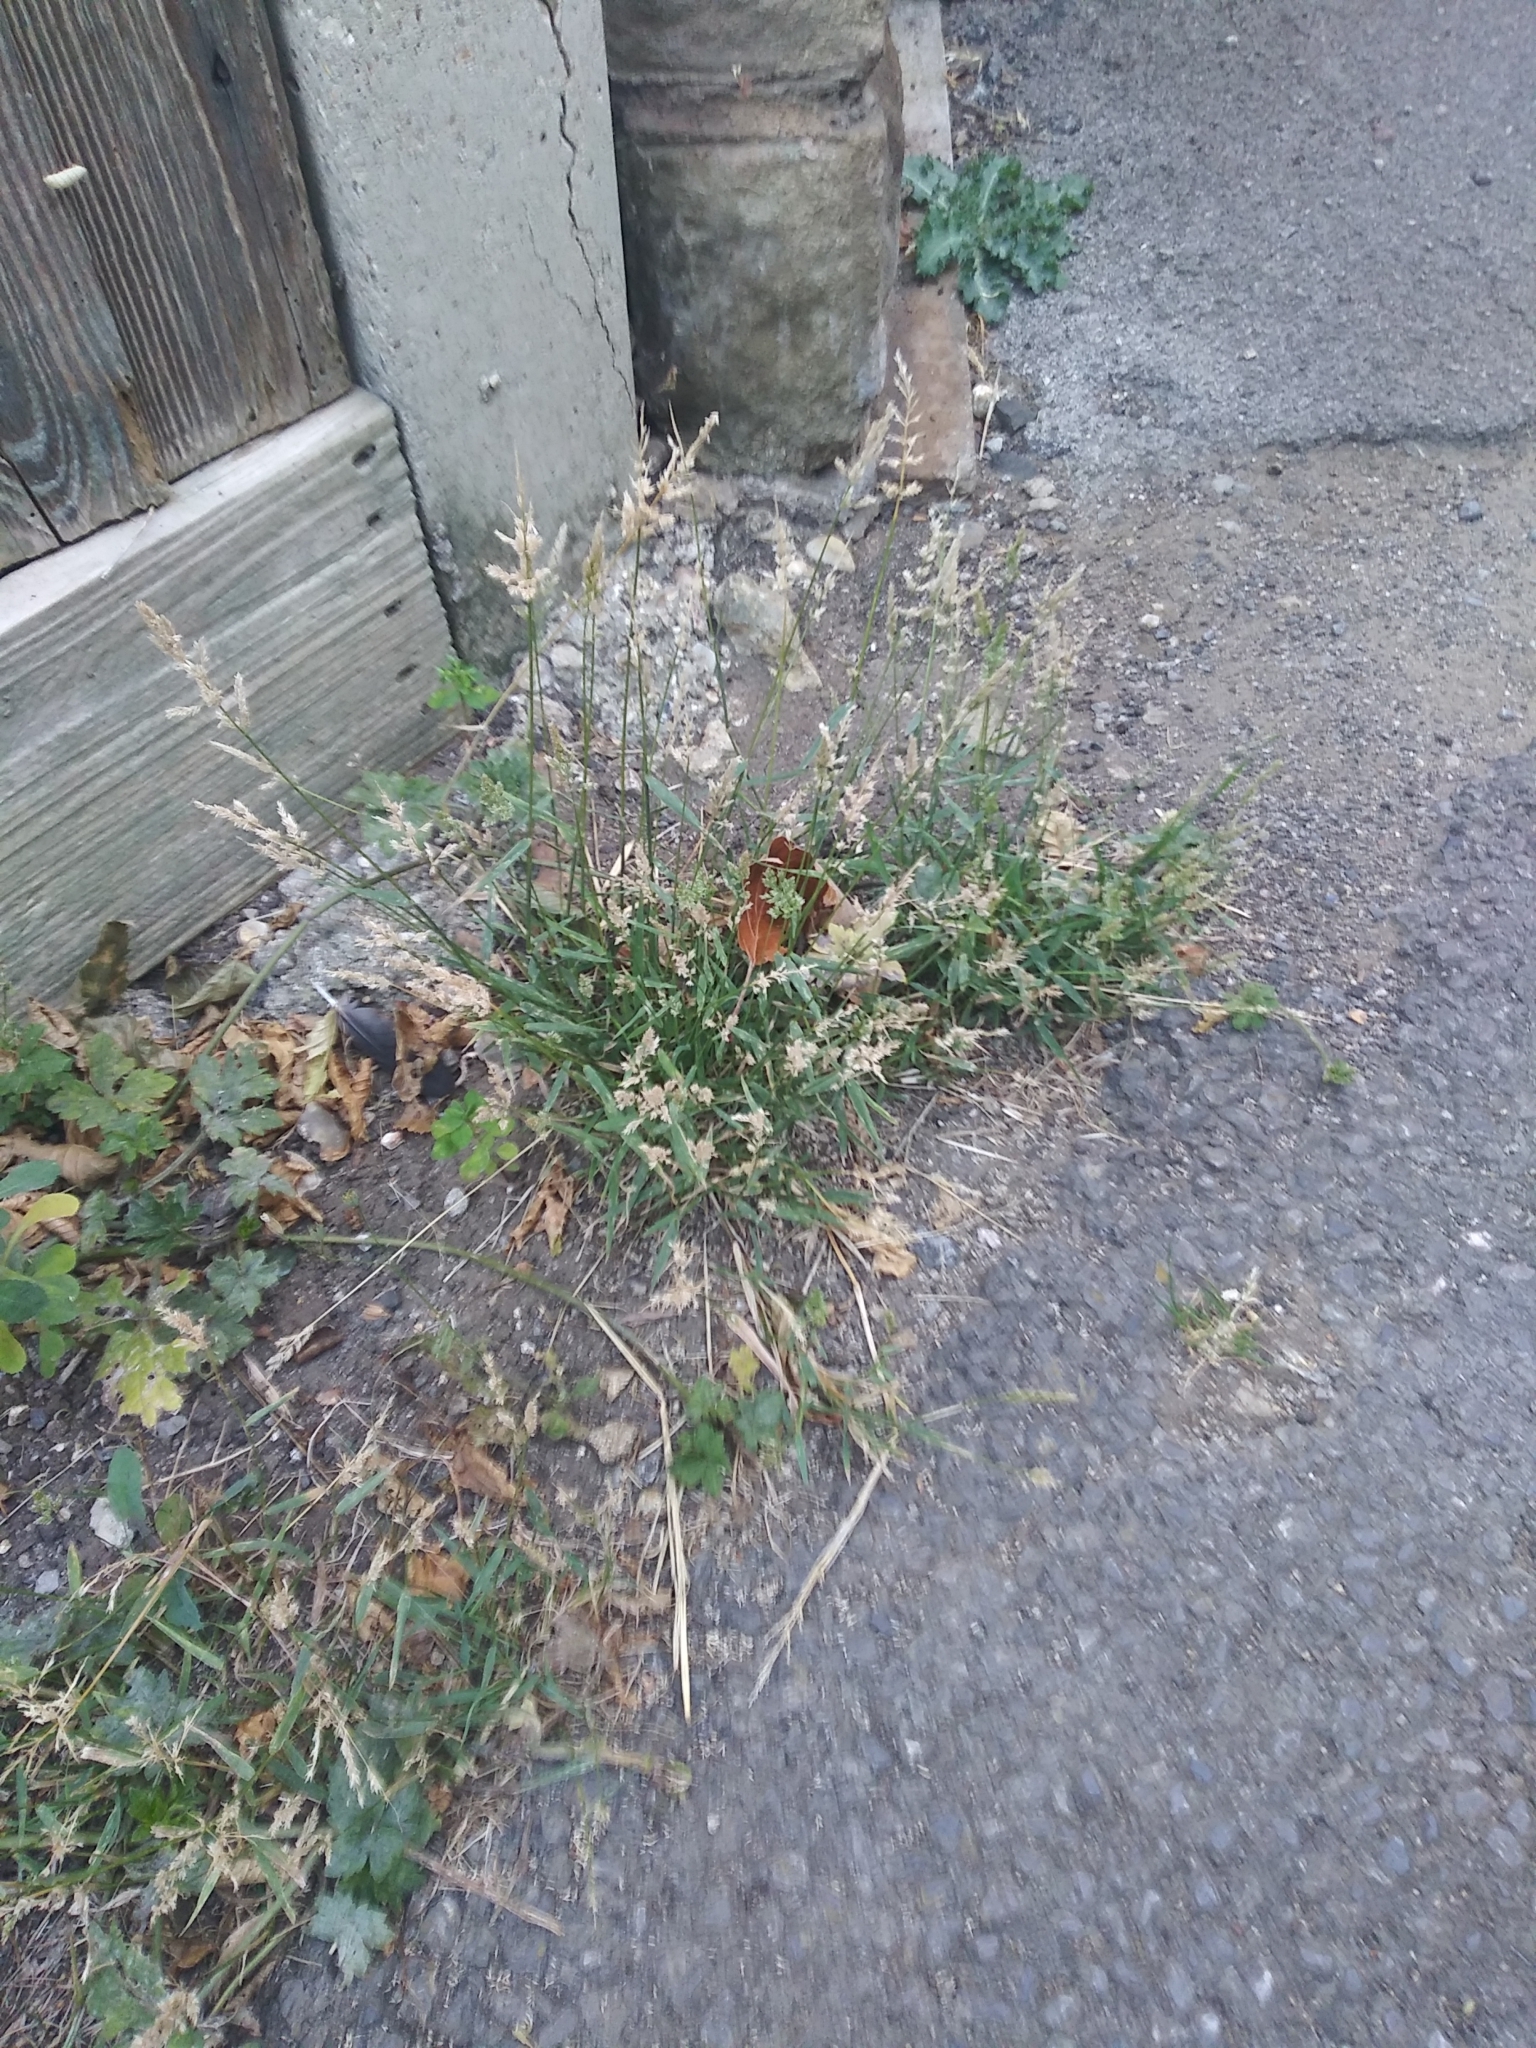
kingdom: Plantae
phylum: Tracheophyta
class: Liliopsida
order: Poales
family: Poaceae
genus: Polypogon
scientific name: Polypogon viridis
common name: Water bent
